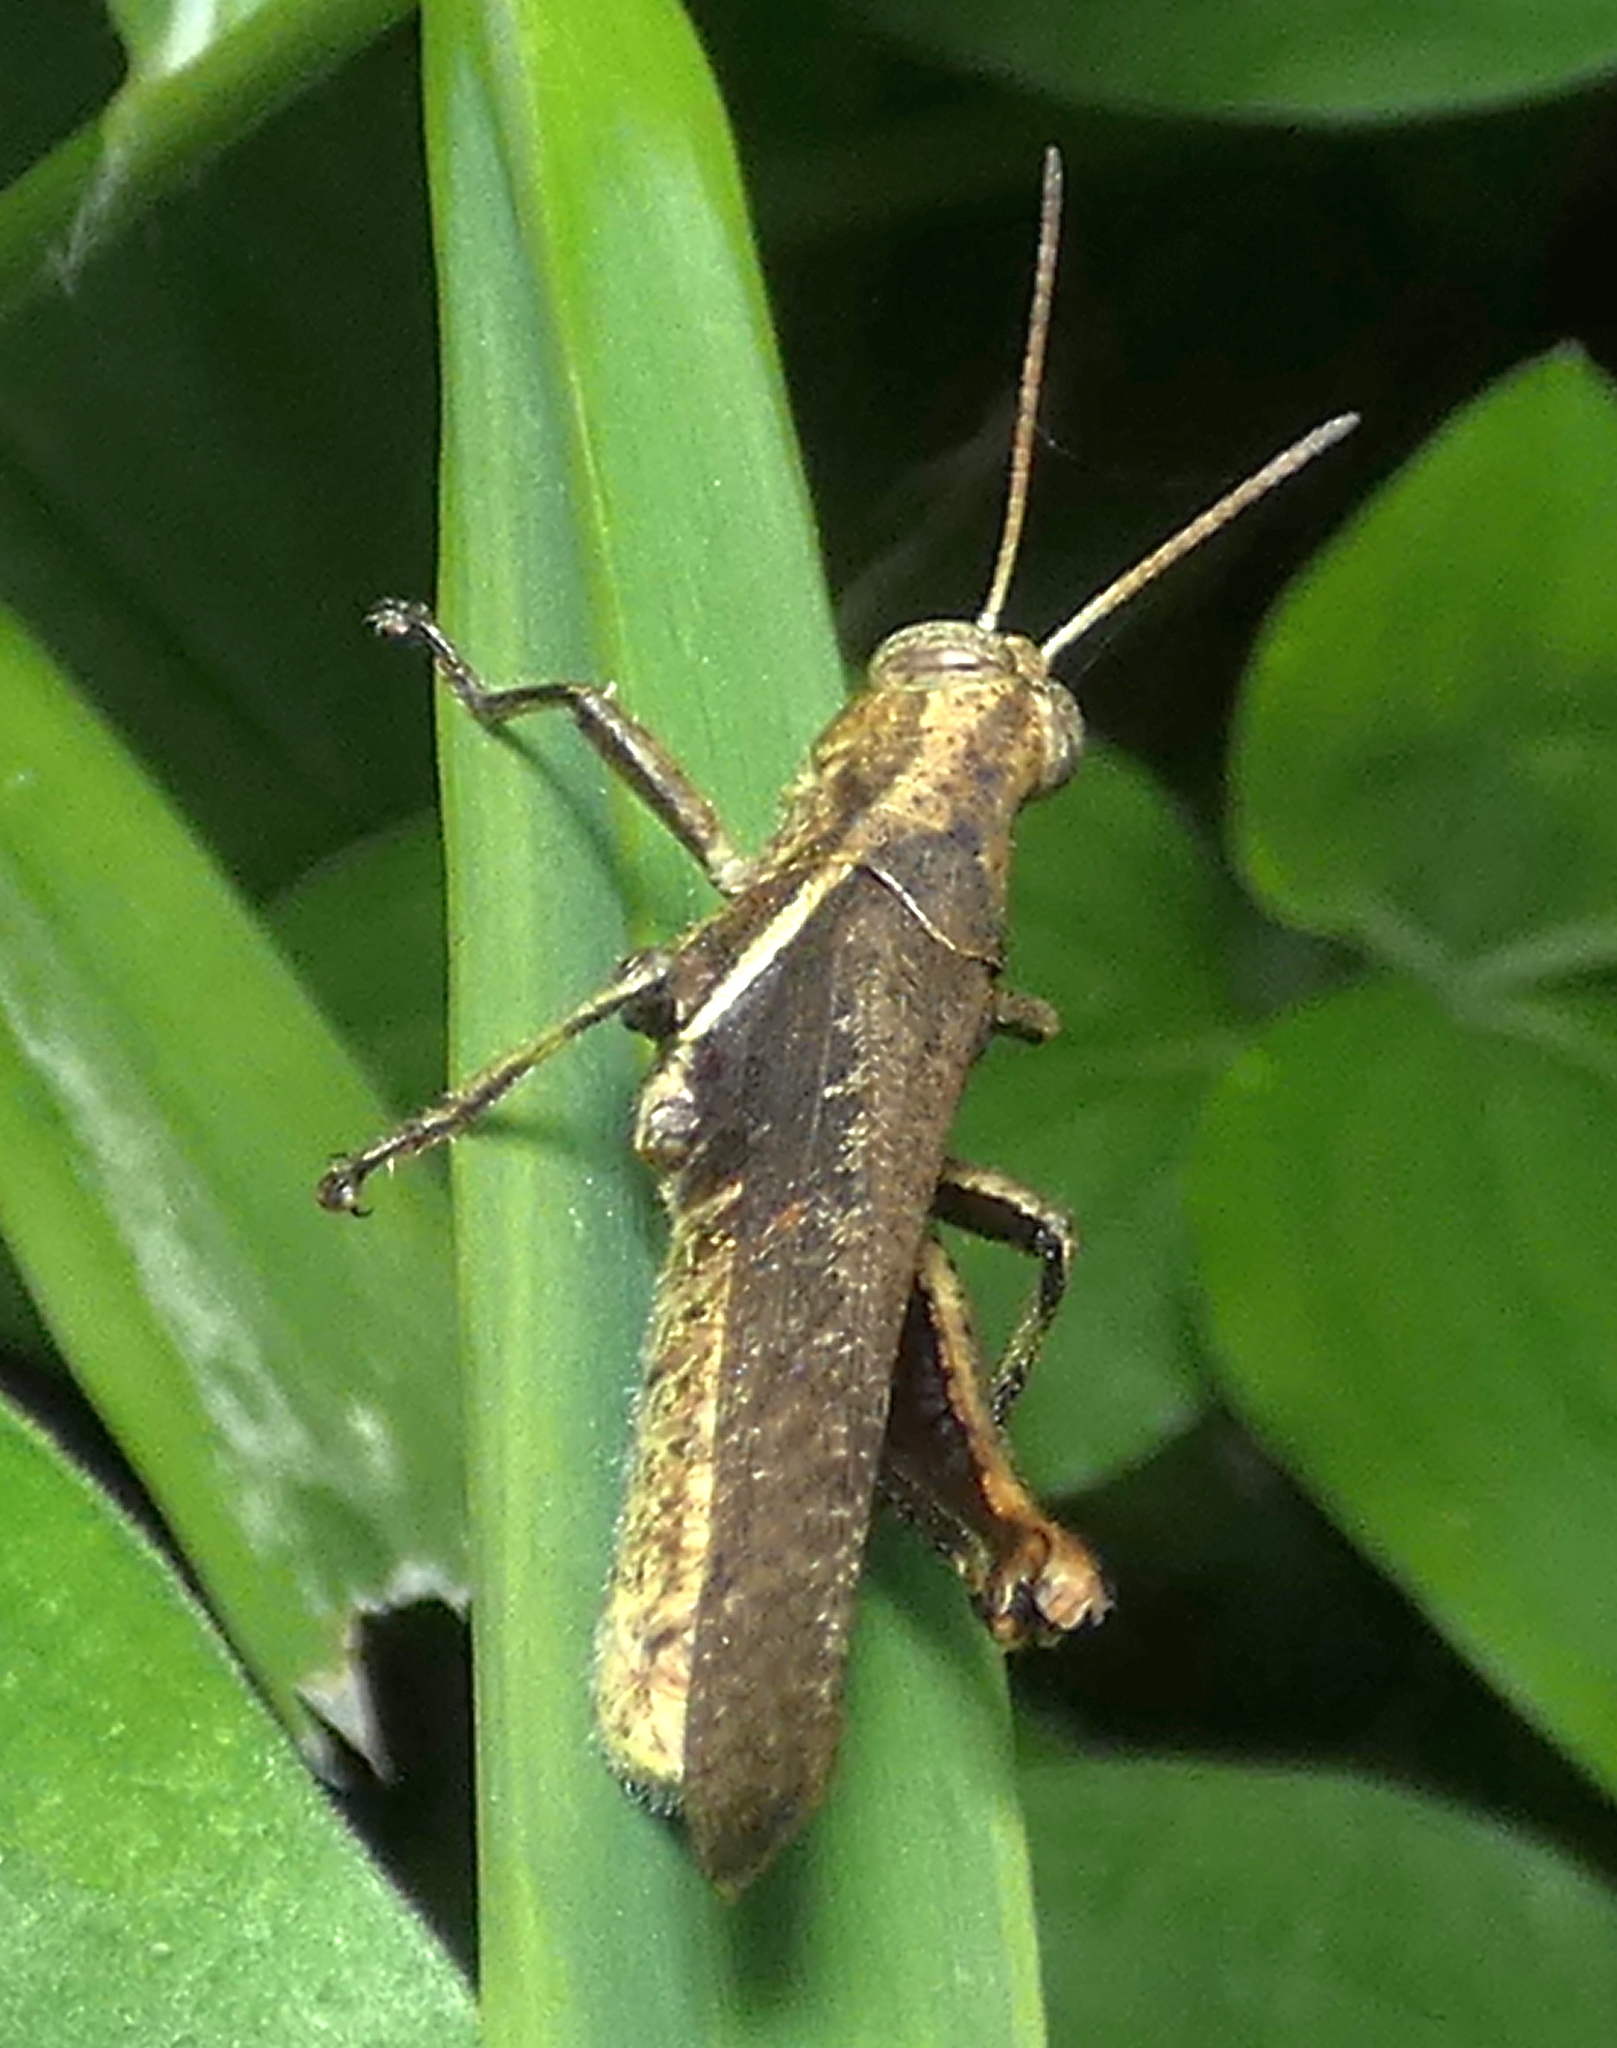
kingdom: Animalia
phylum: Arthropoda
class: Insecta
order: Orthoptera
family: Acrididae
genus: Abracris
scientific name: Abracris flavolineata
